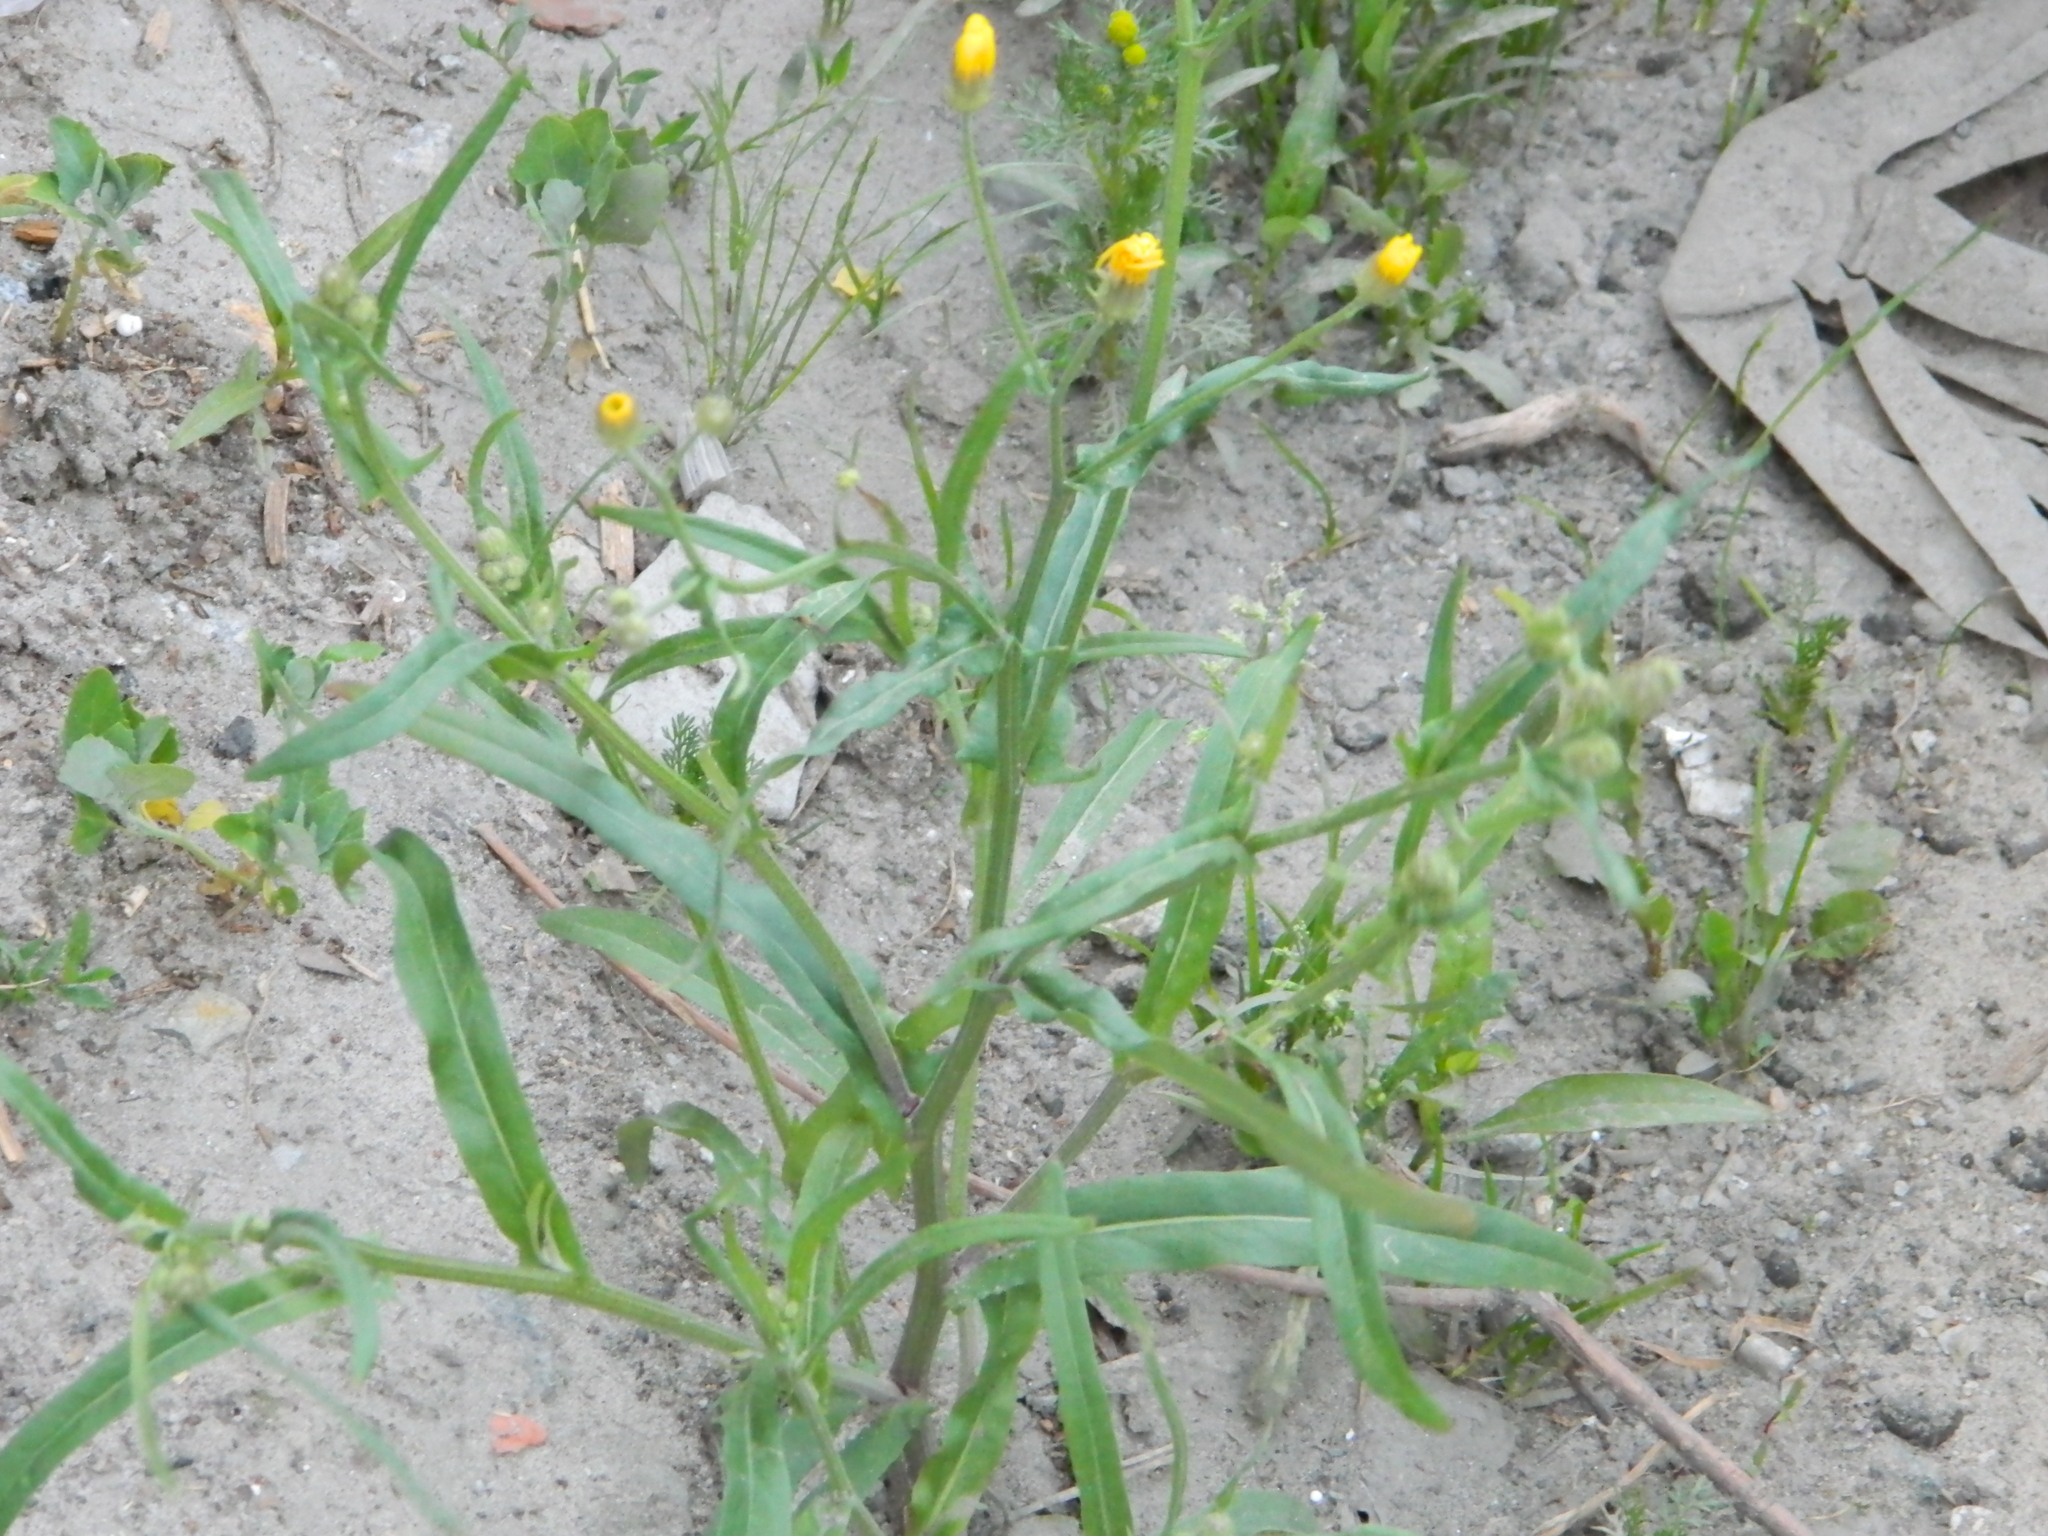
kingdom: Plantae
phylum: Tracheophyta
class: Magnoliopsida
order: Asterales
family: Asteraceae
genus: Crepis
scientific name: Crepis tectorum
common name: Narrow-leaved hawk's-beard
